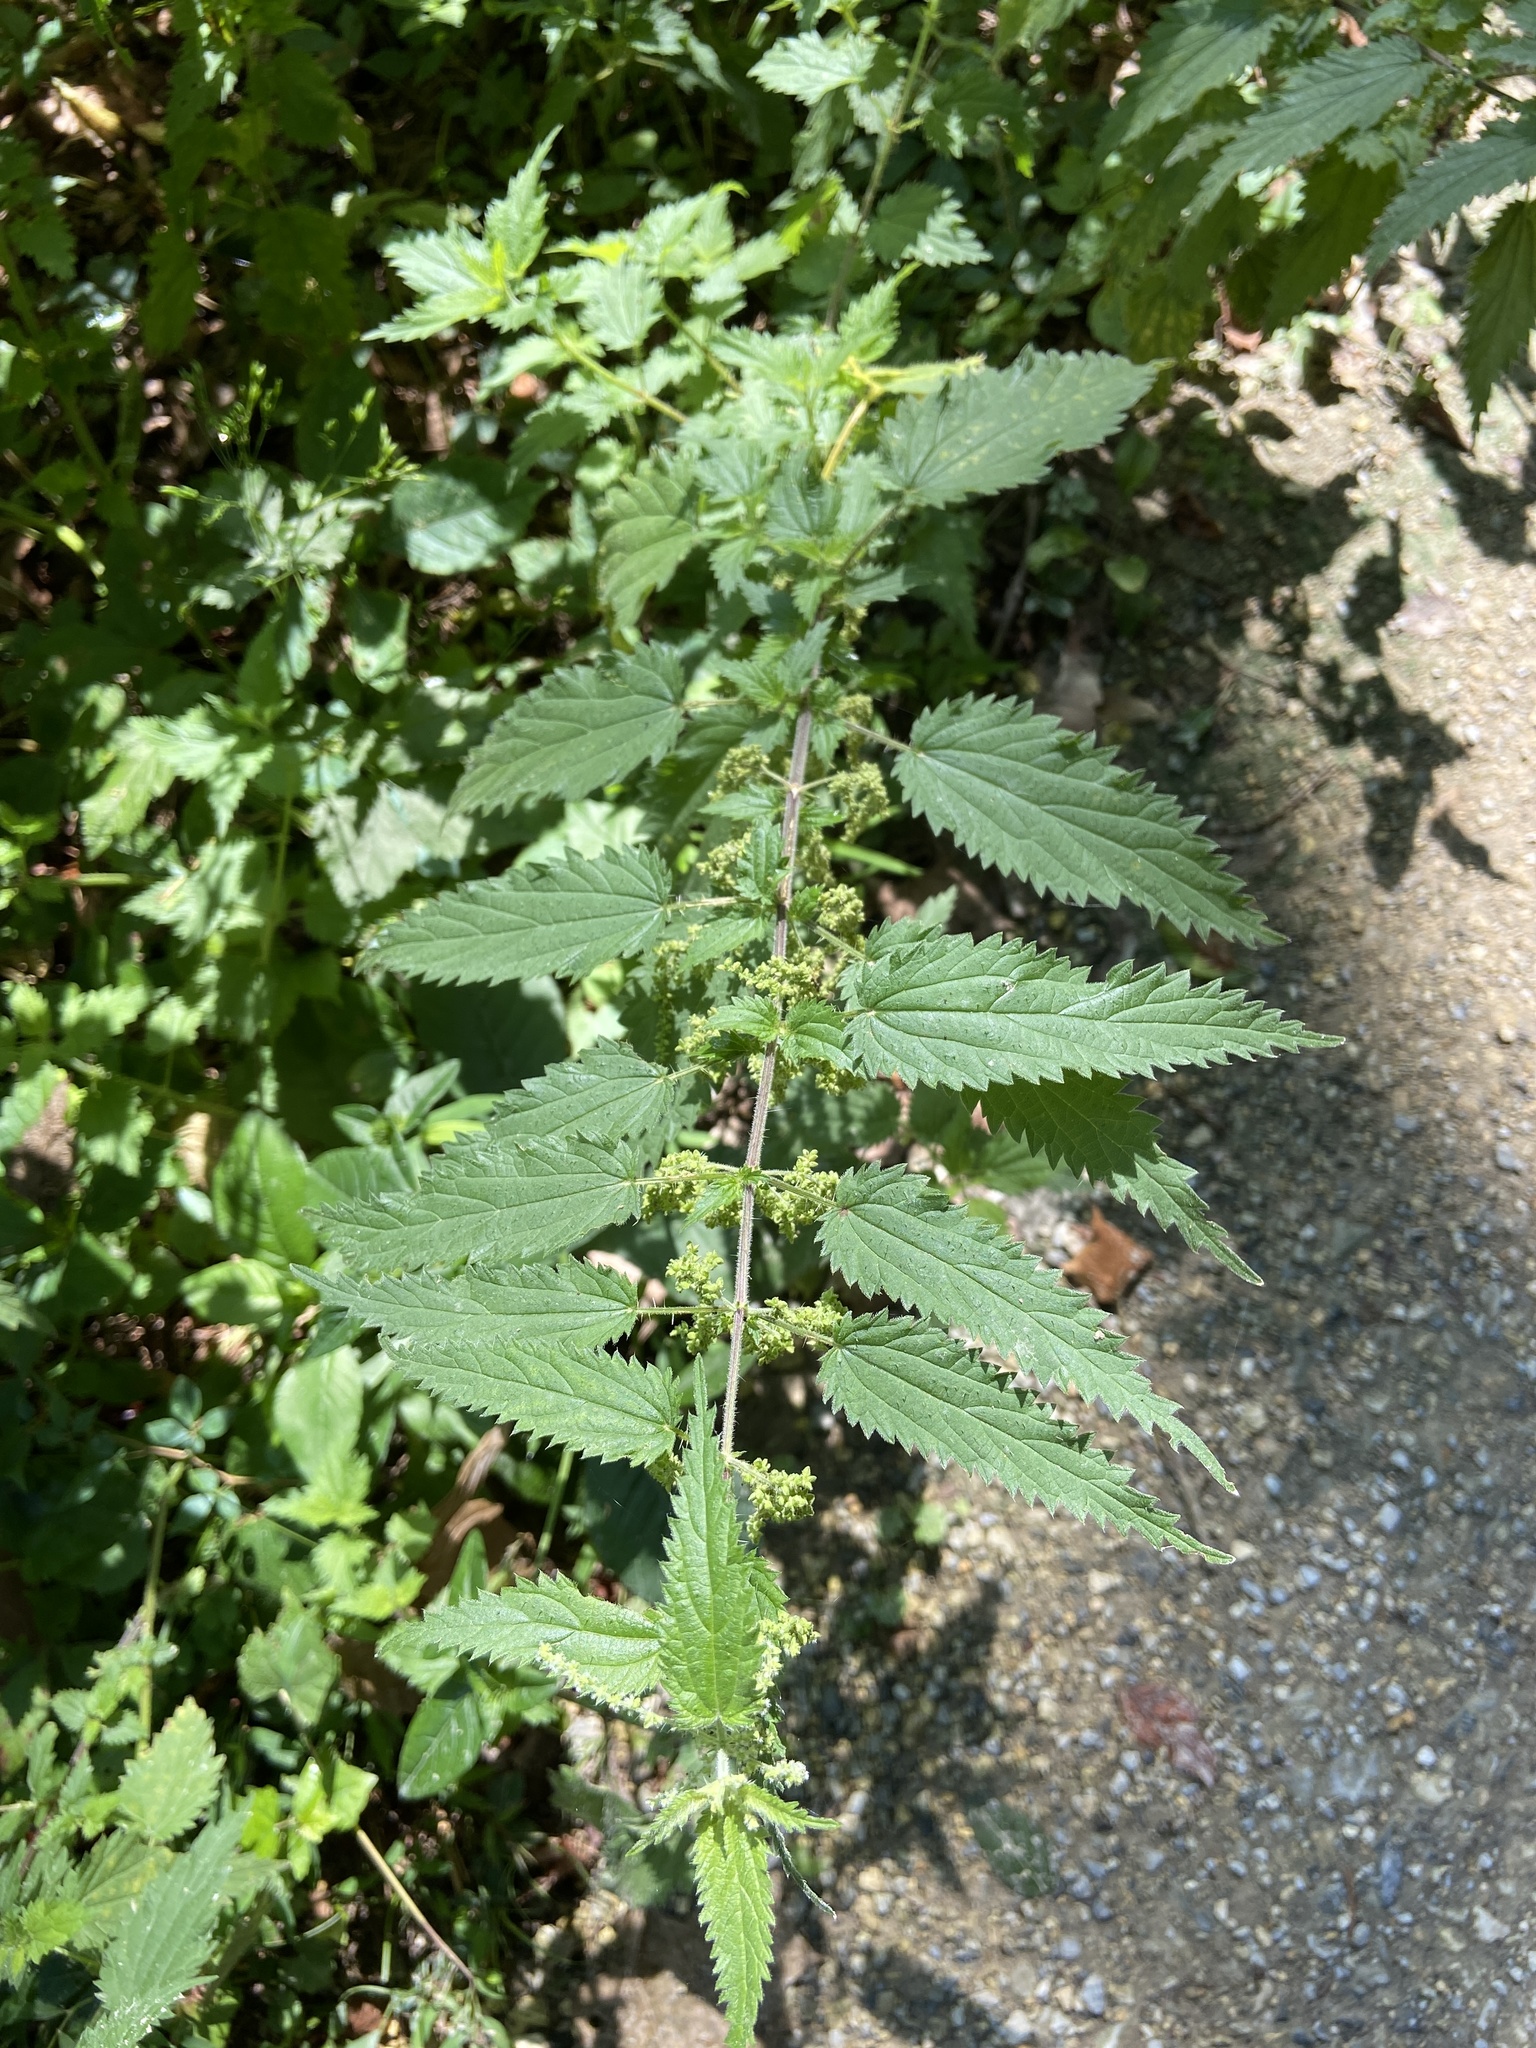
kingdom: Plantae
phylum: Tracheophyta
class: Magnoliopsida
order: Rosales
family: Urticaceae
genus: Urtica
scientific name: Urtica dioica
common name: Common nettle
